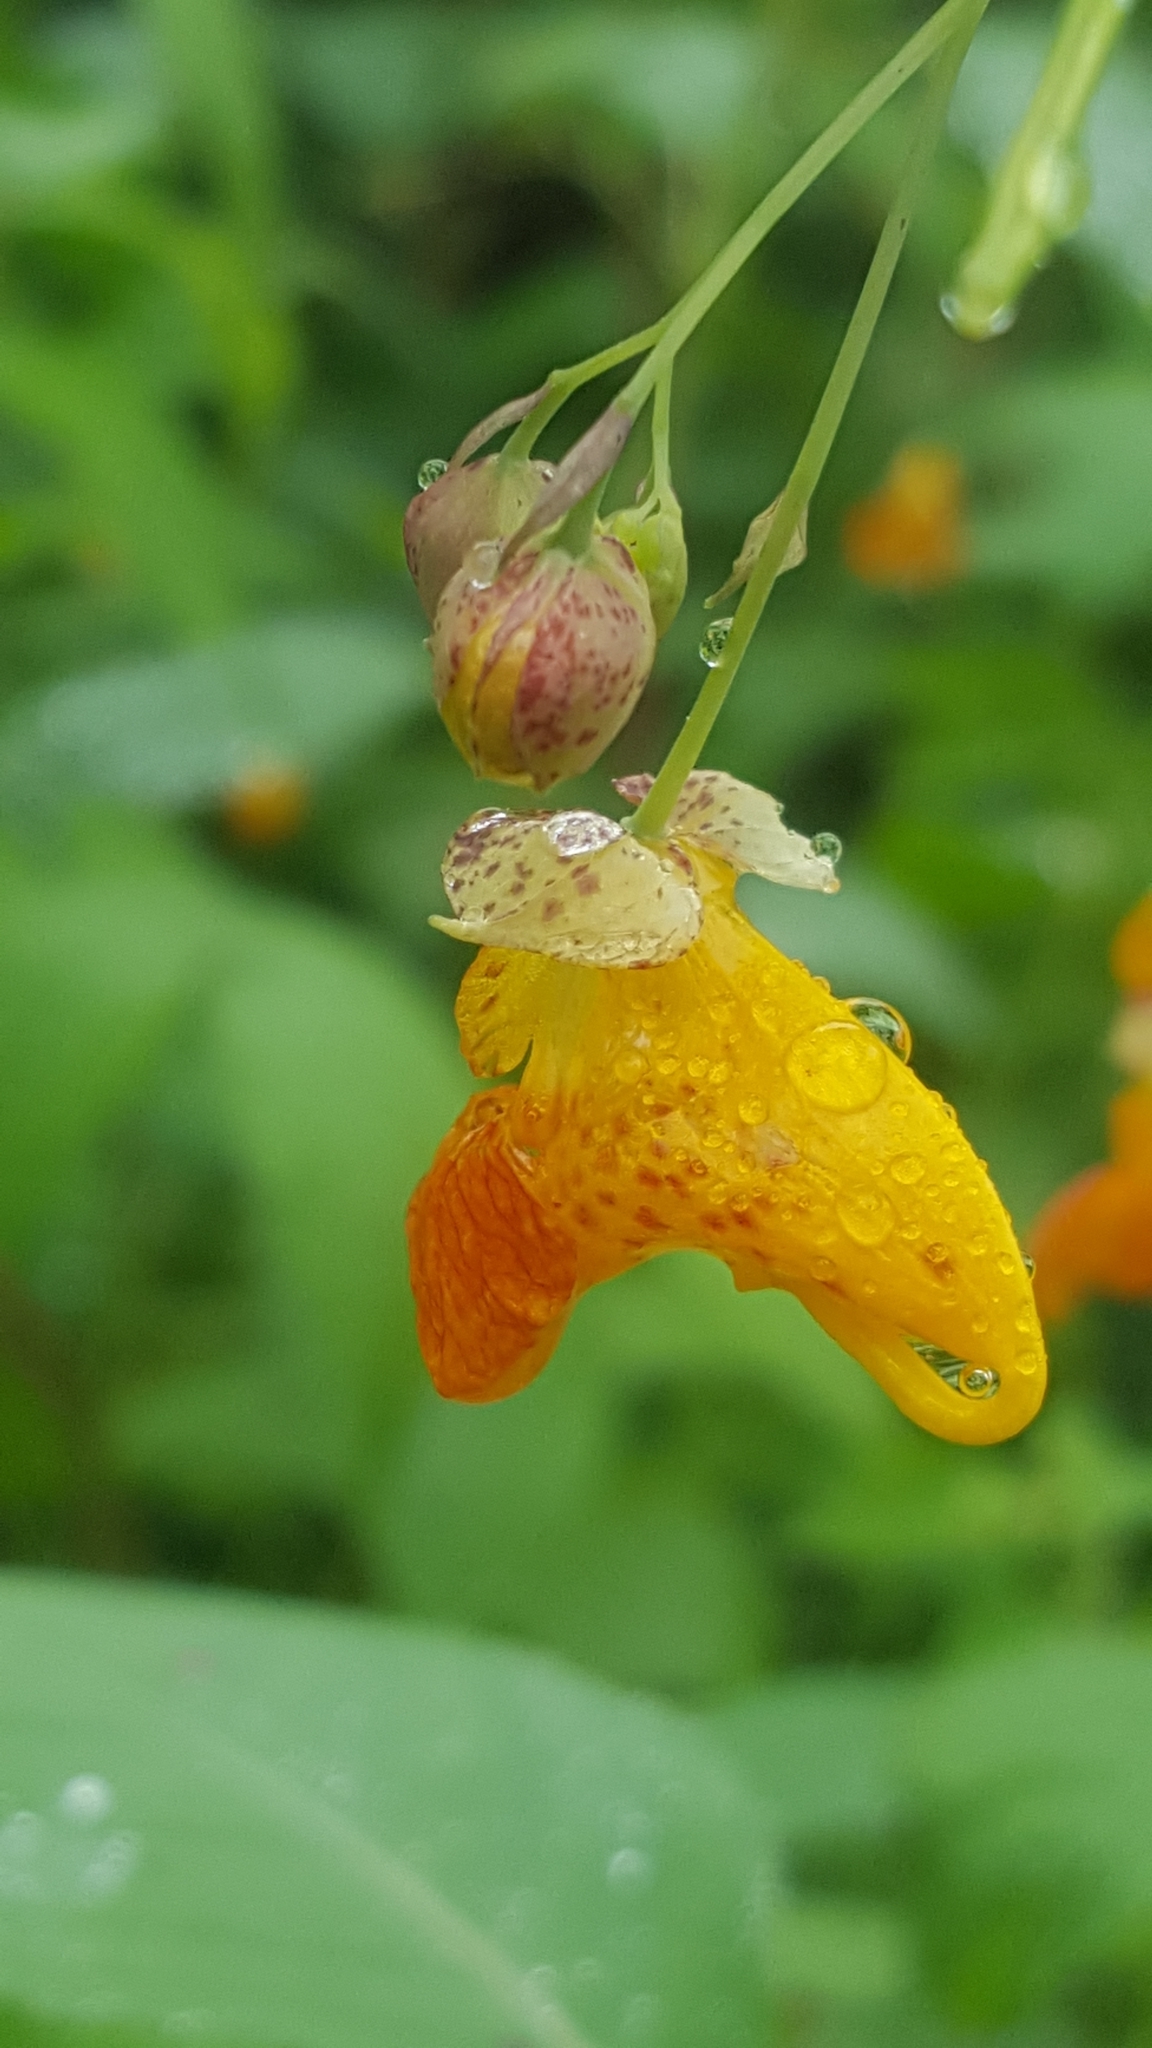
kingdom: Plantae
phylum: Tracheophyta
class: Magnoliopsida
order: Ericales
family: Balsaminaceae
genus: Impatiens
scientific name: Impatiens capensis
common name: Orange balsam
